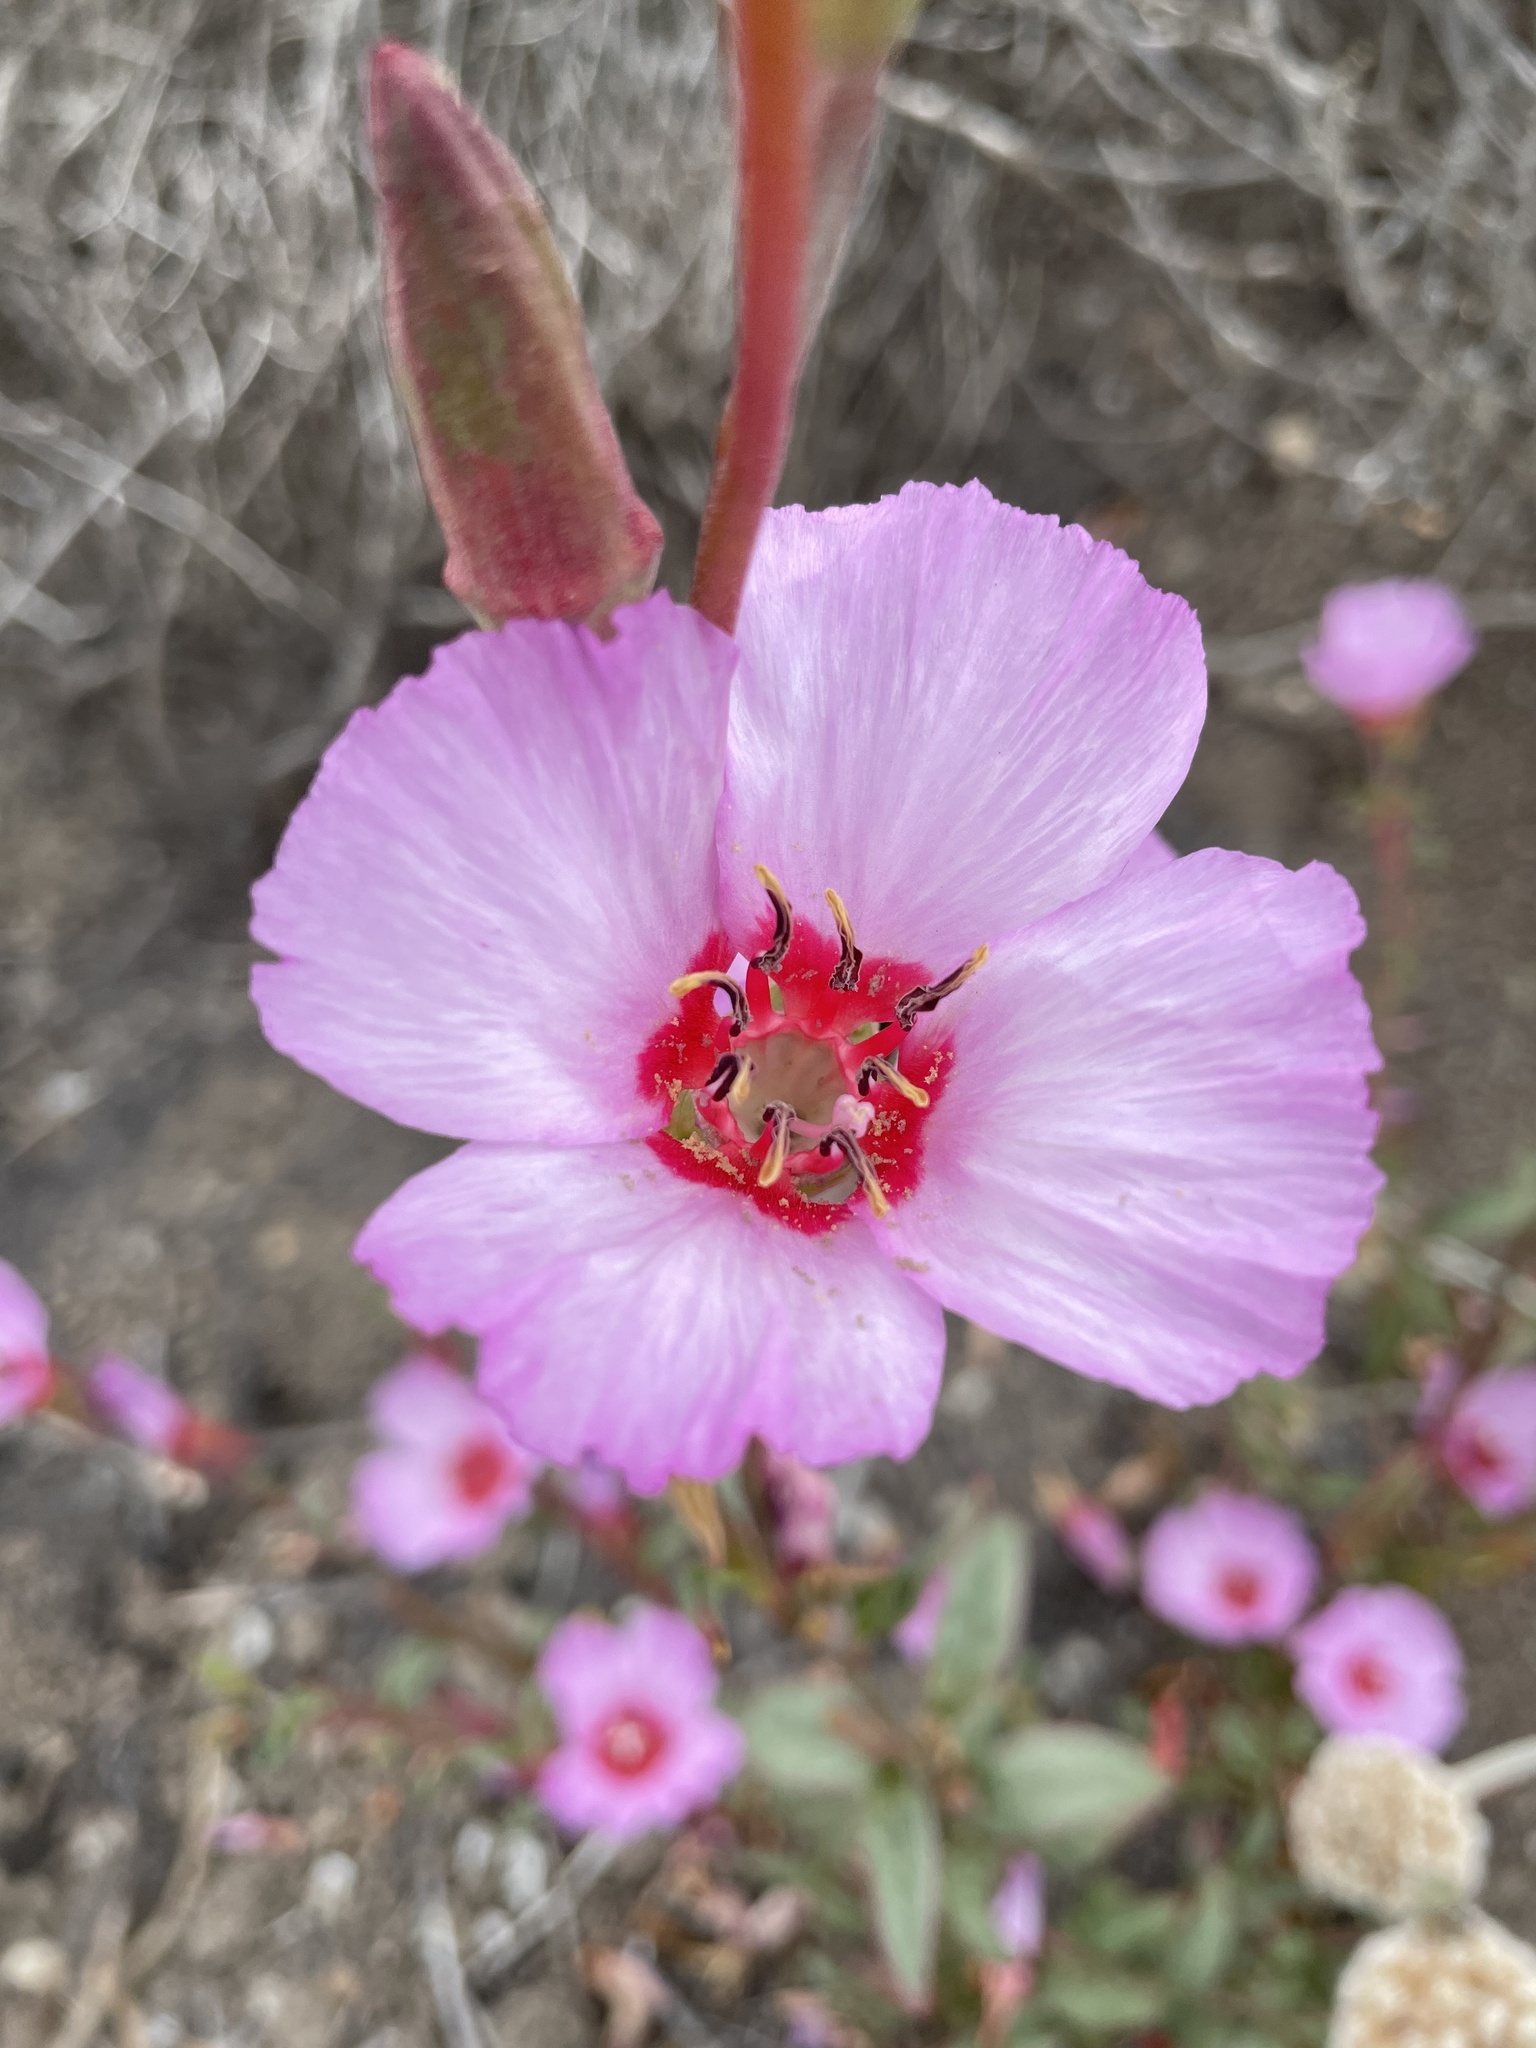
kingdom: Plantae
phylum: Tracheophyta
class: Magnoliopsida
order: Myrtales
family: Onagraceae
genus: Clarkia
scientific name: Clarkia rubicunda
